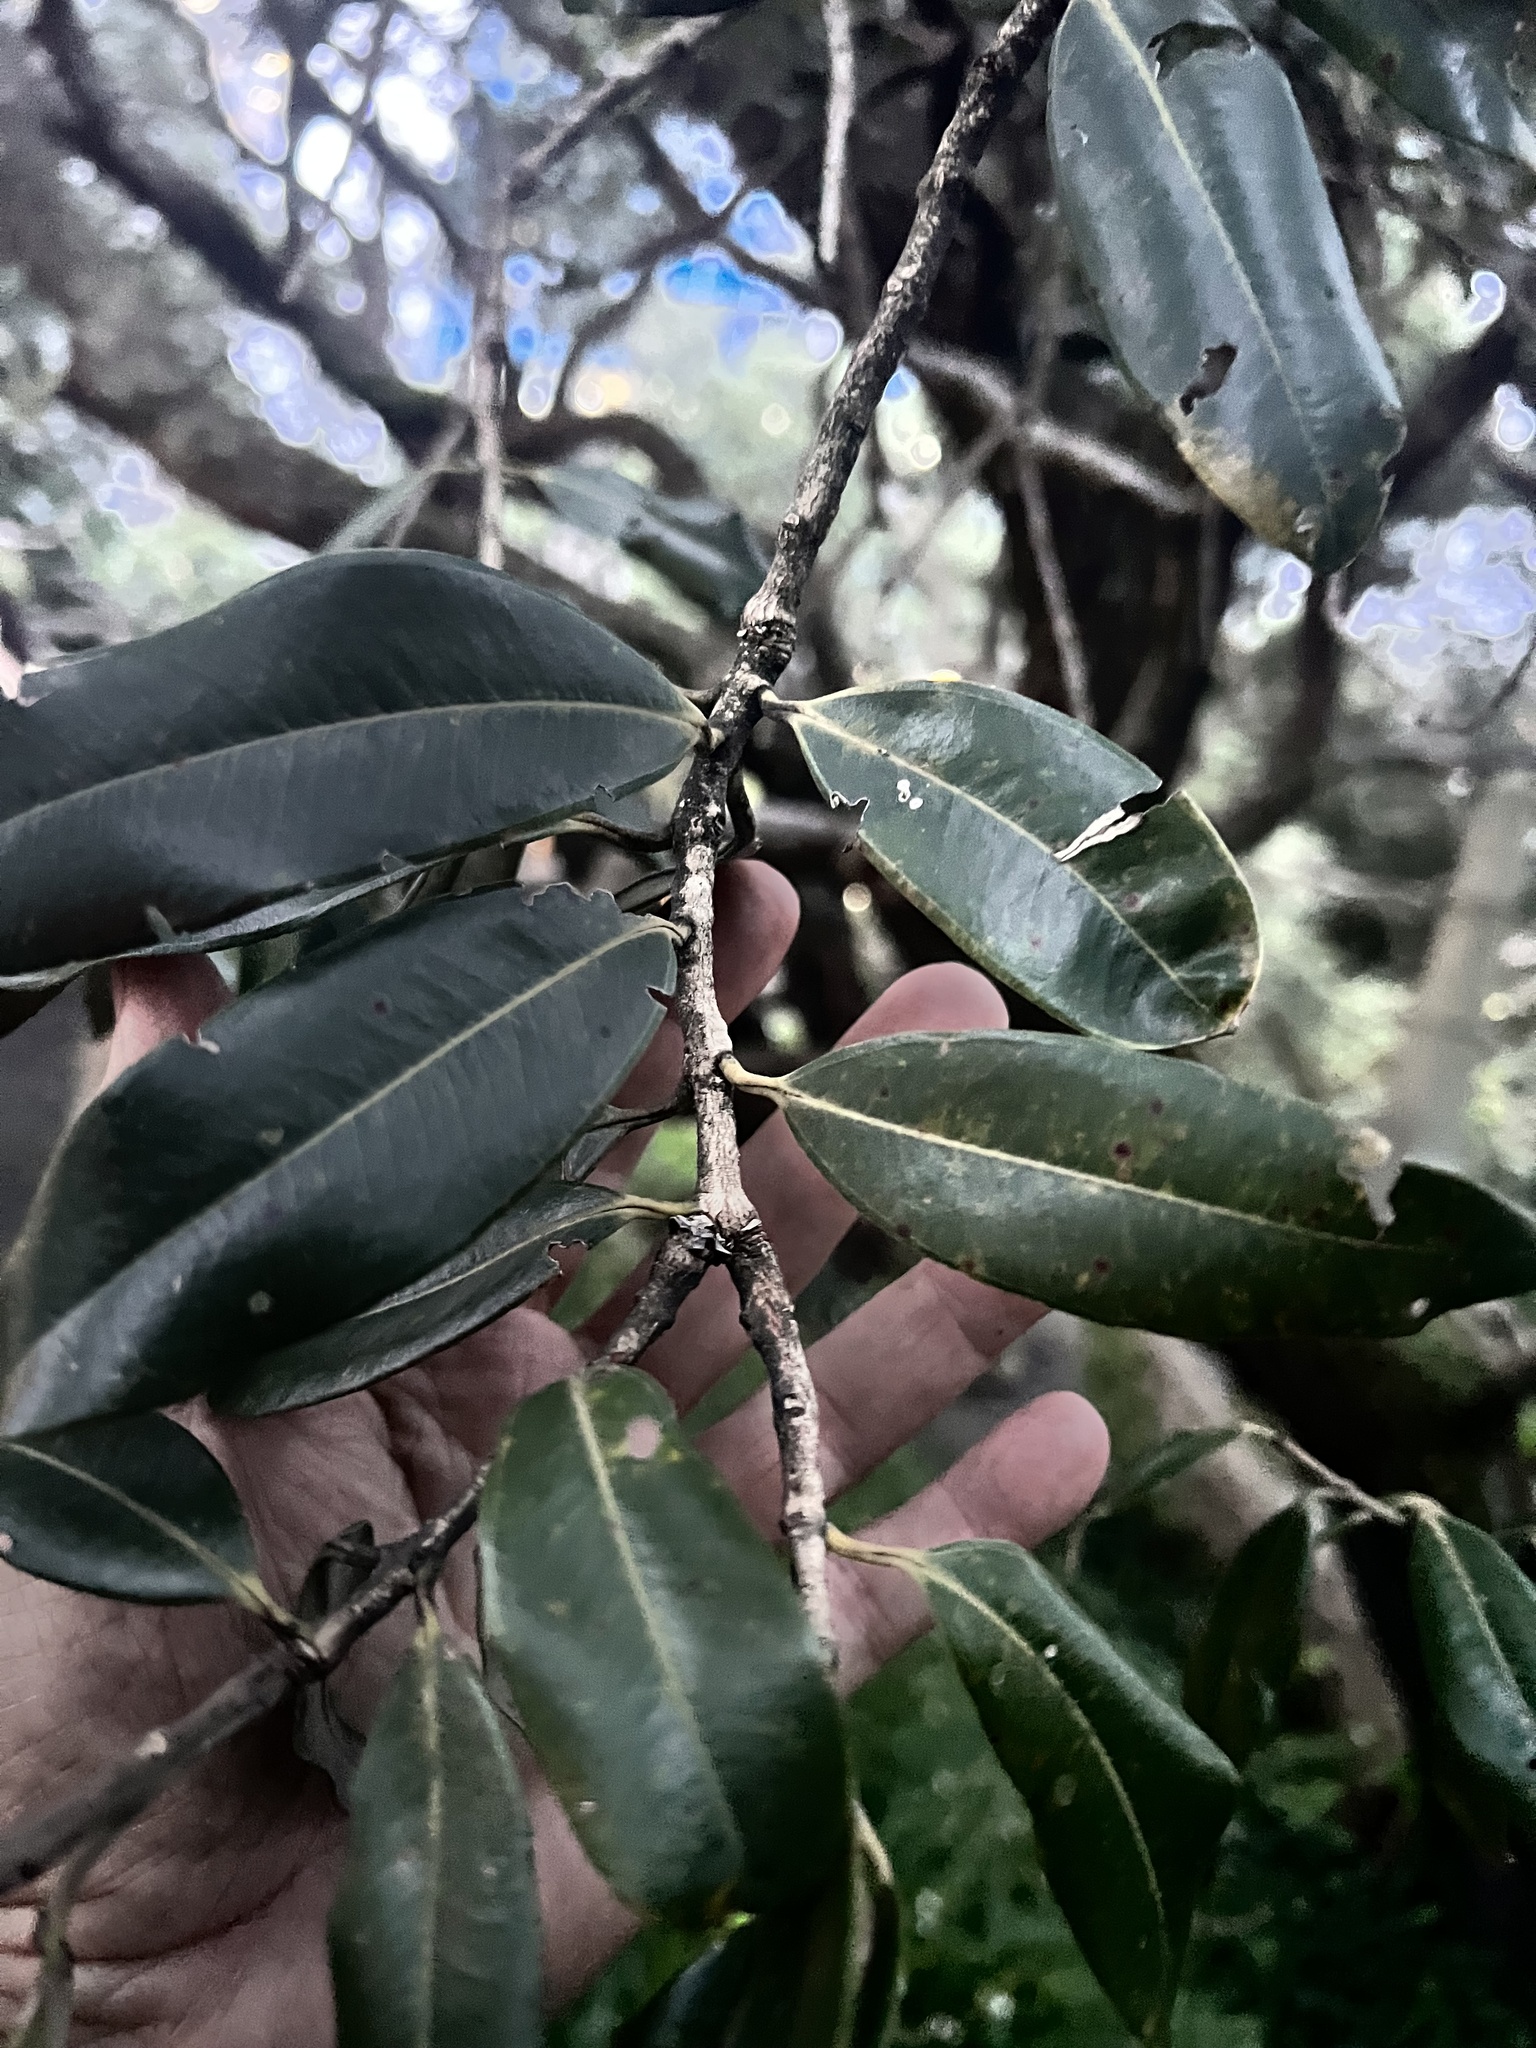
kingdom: Plantae
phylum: Tracheophyta
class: Magnoliopsida
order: Myrtales
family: Myrtaceae
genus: Metrosideros
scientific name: Metrosideros excelsa
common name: New zealand christmastree
